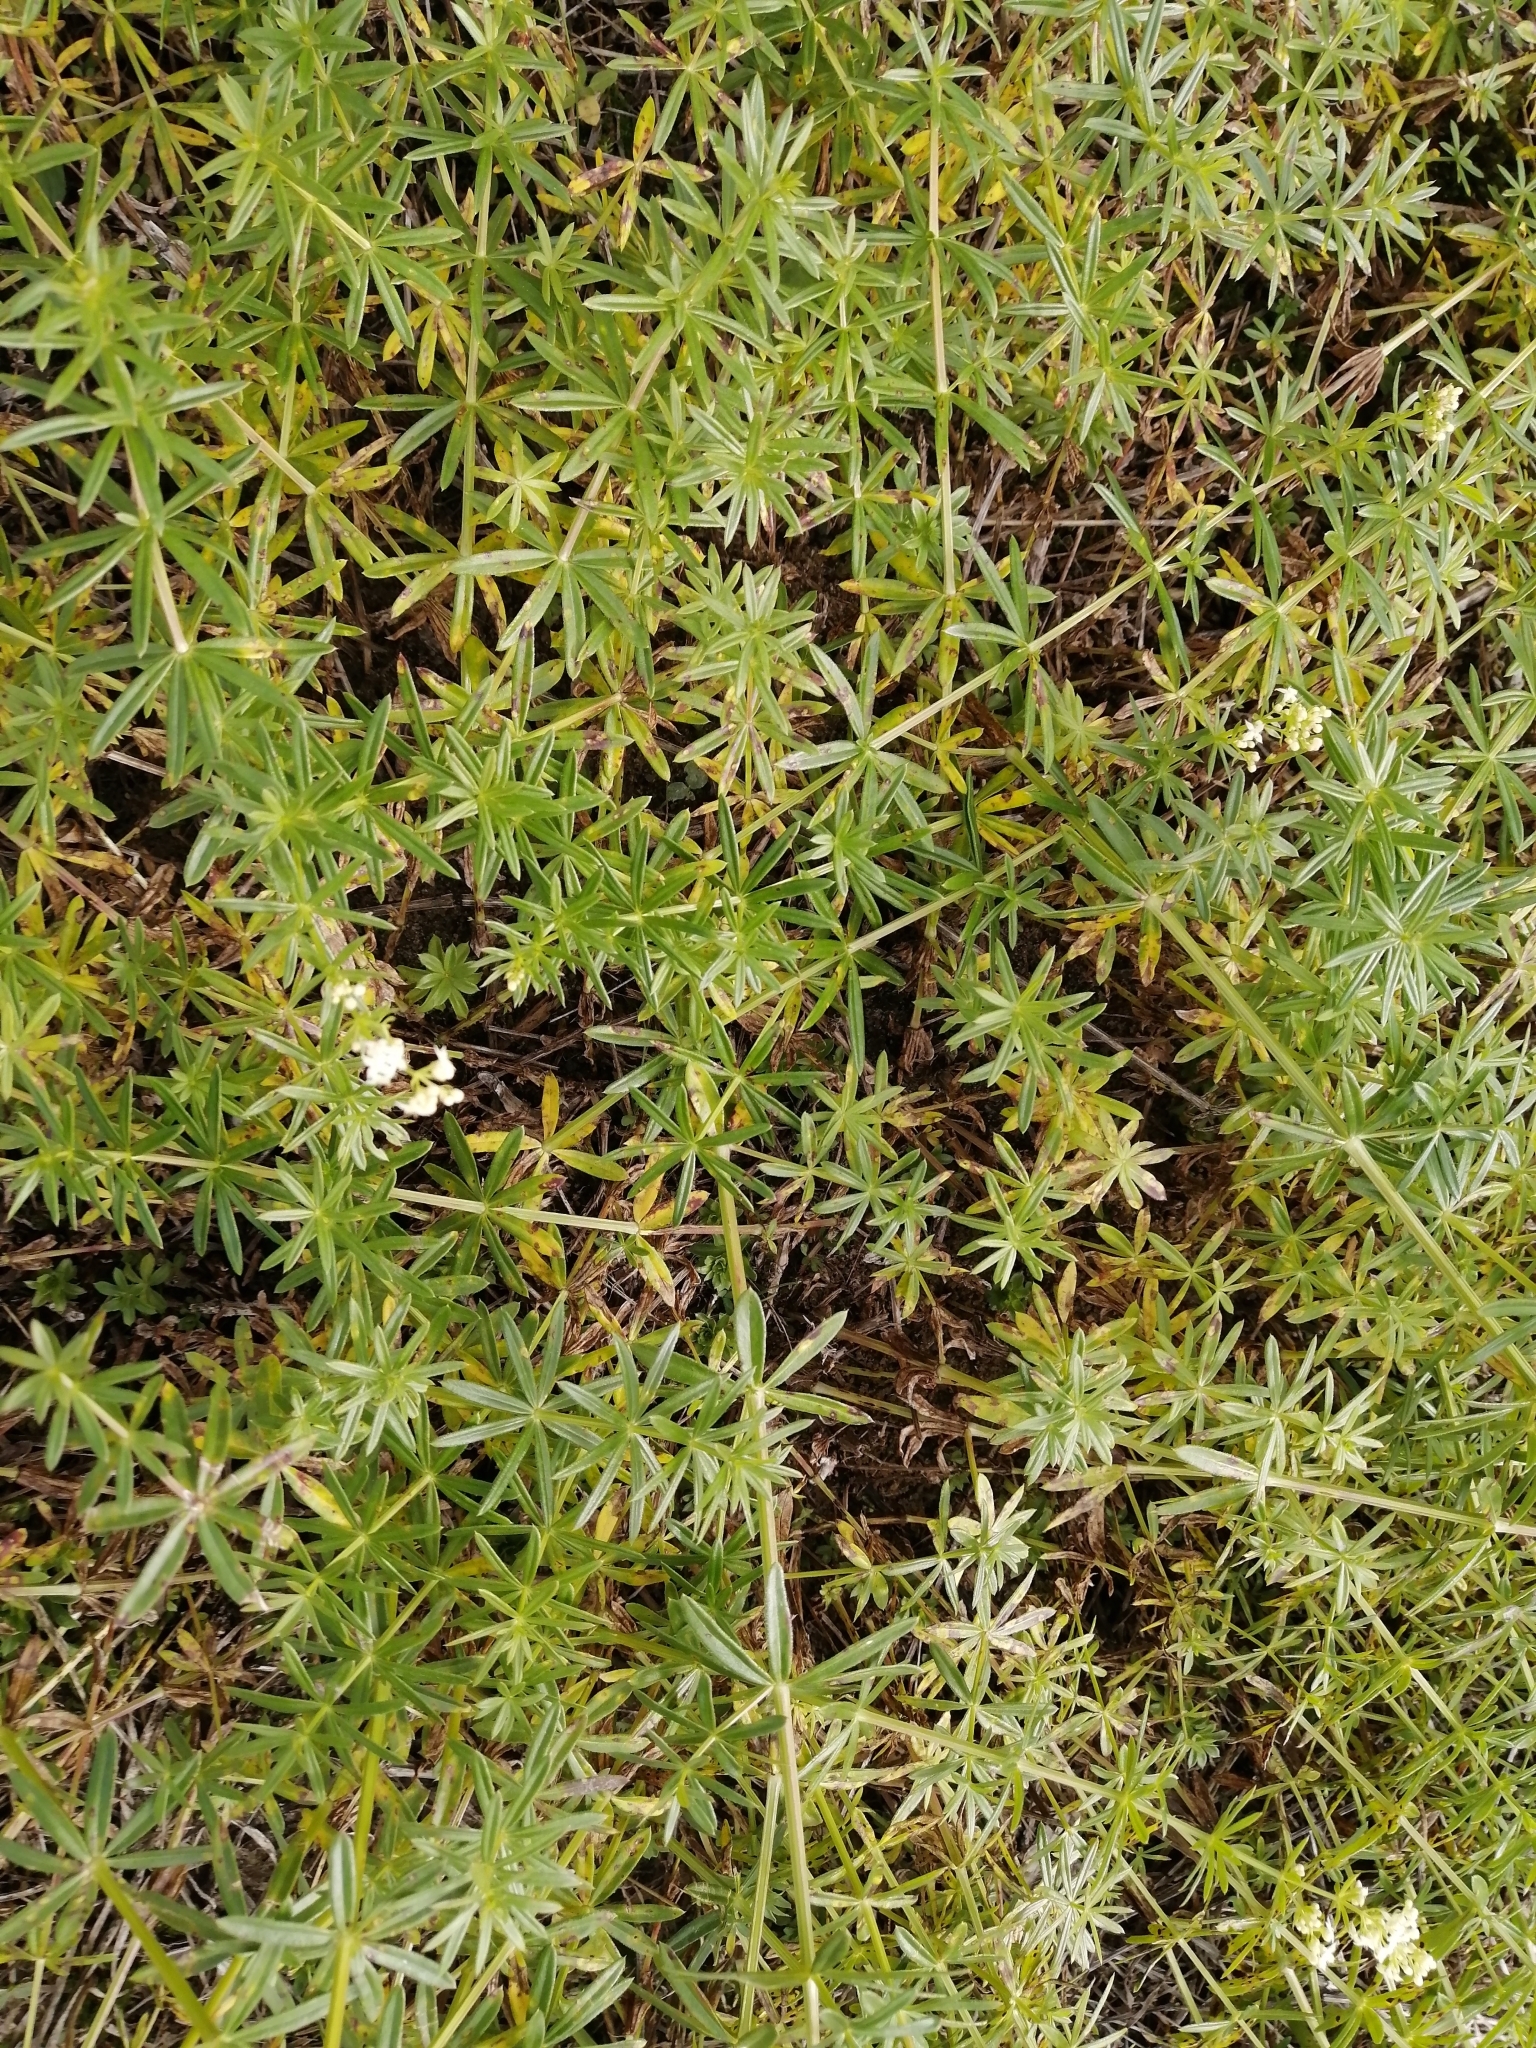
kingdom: Plantae
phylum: Tracheophyta
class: Magnoliopsida
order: Gentianales
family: Rubiaceae
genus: Galium
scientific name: Galium mollugo
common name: Hedge bedstraw
